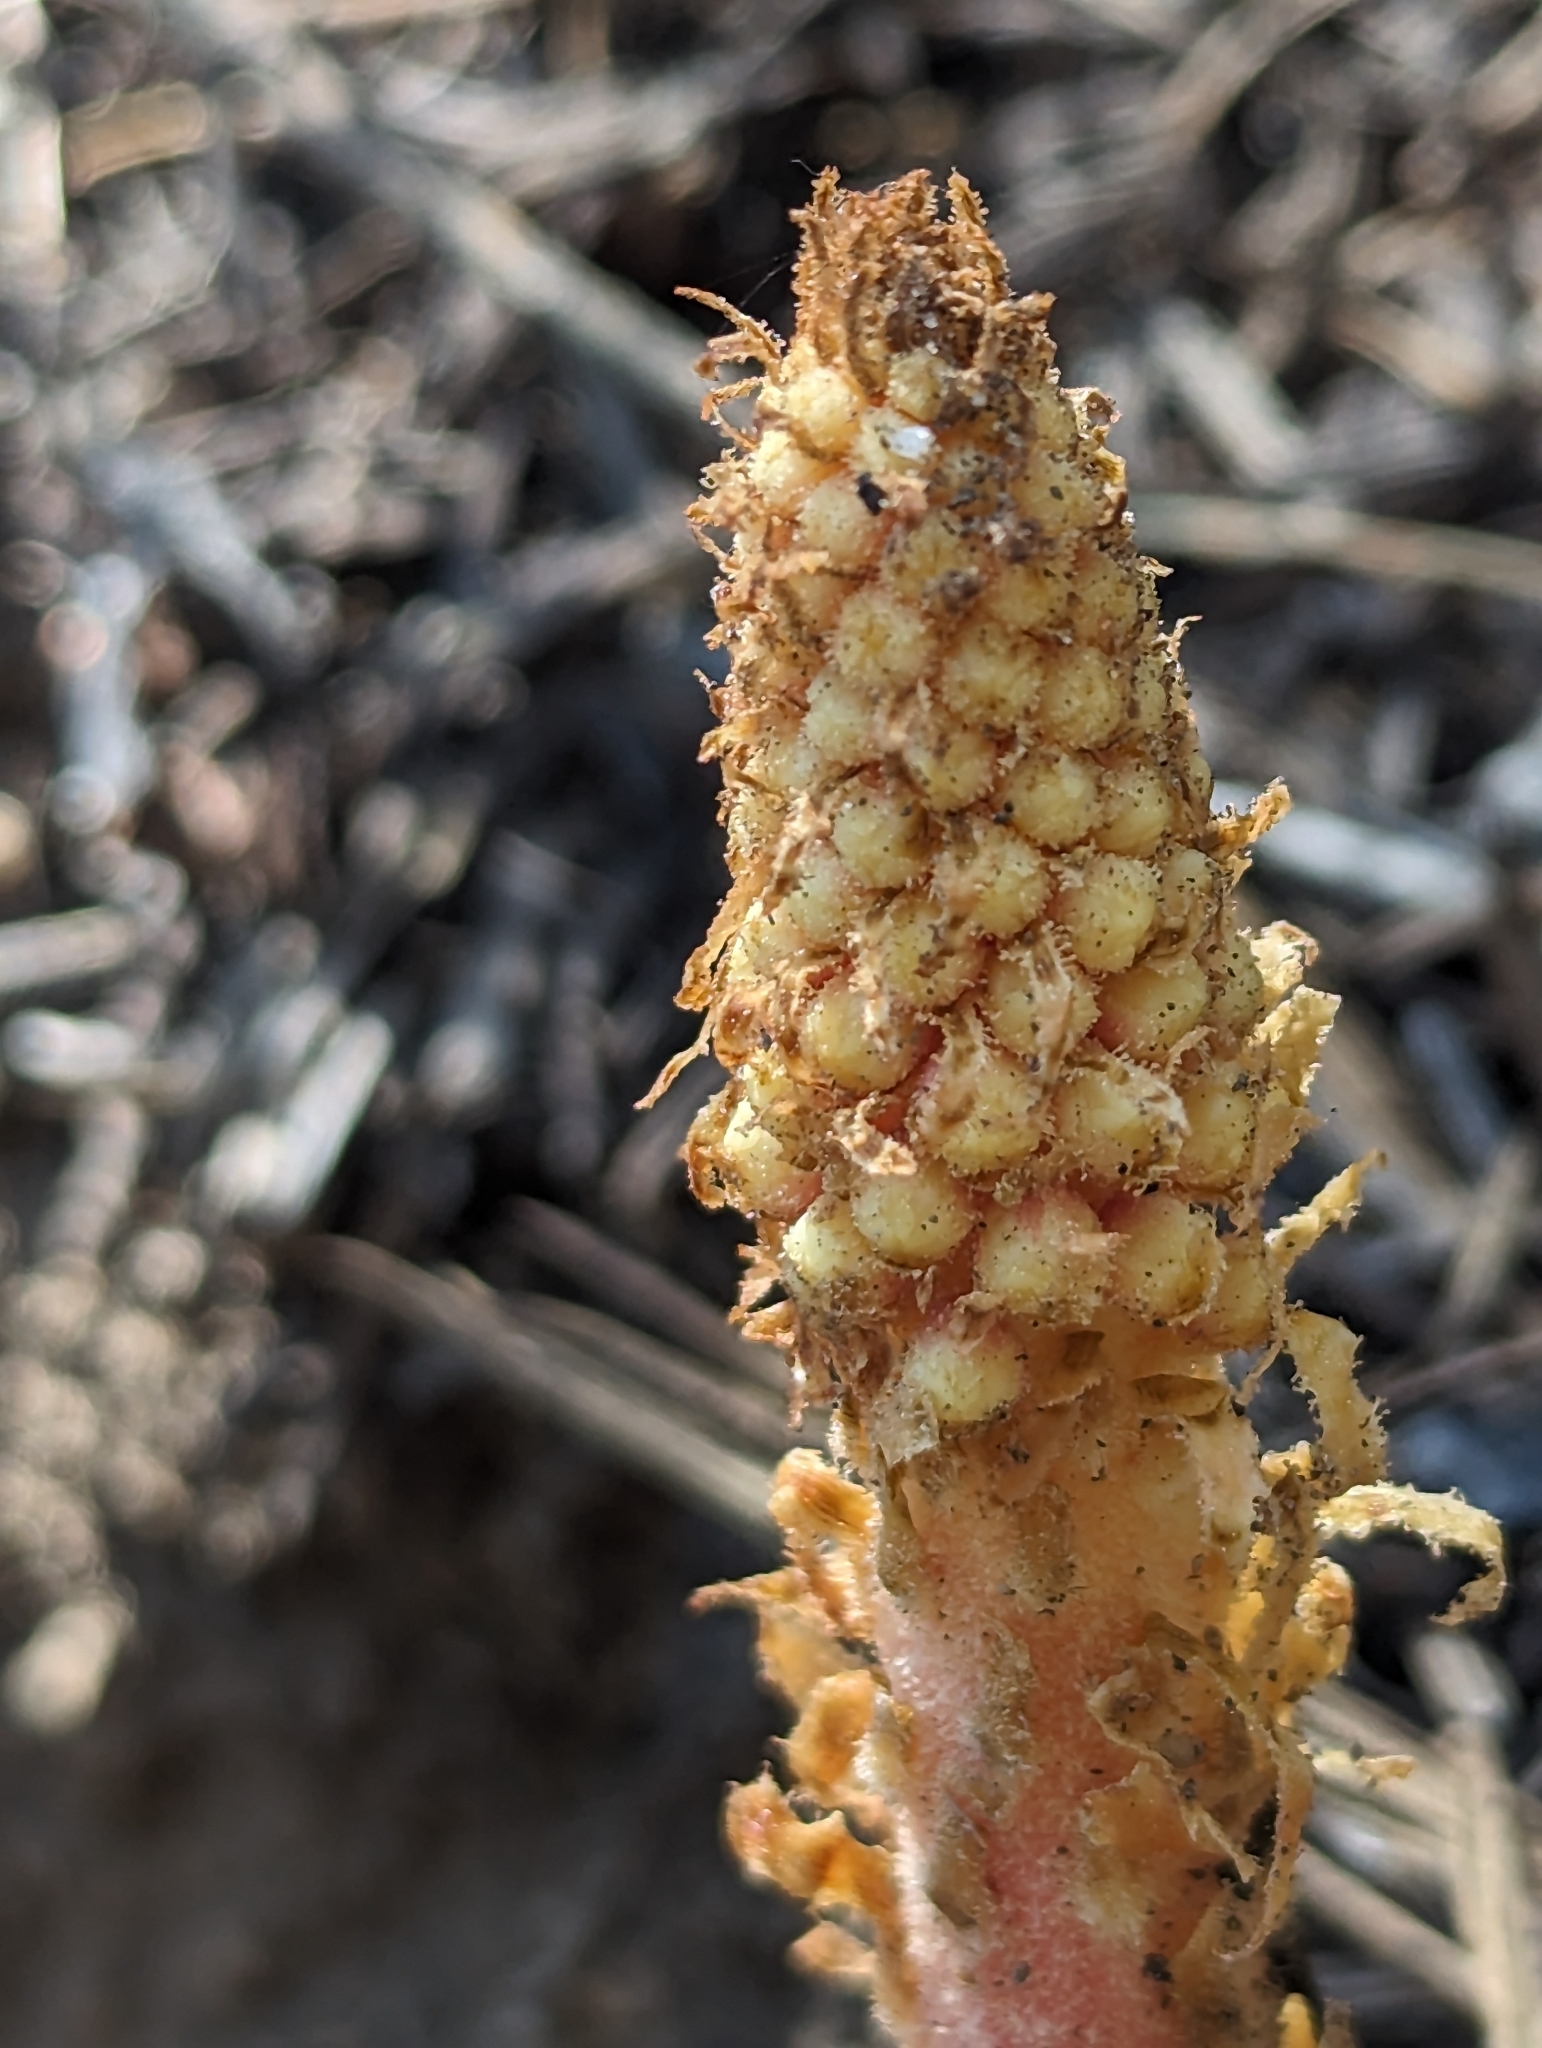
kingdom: Plantae
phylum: Tracheophyta
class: Magnoliopsida
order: Ericales
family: Ericaceae
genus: Pterospora
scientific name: Pterospora andromedea
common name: Giant bird's-nest
